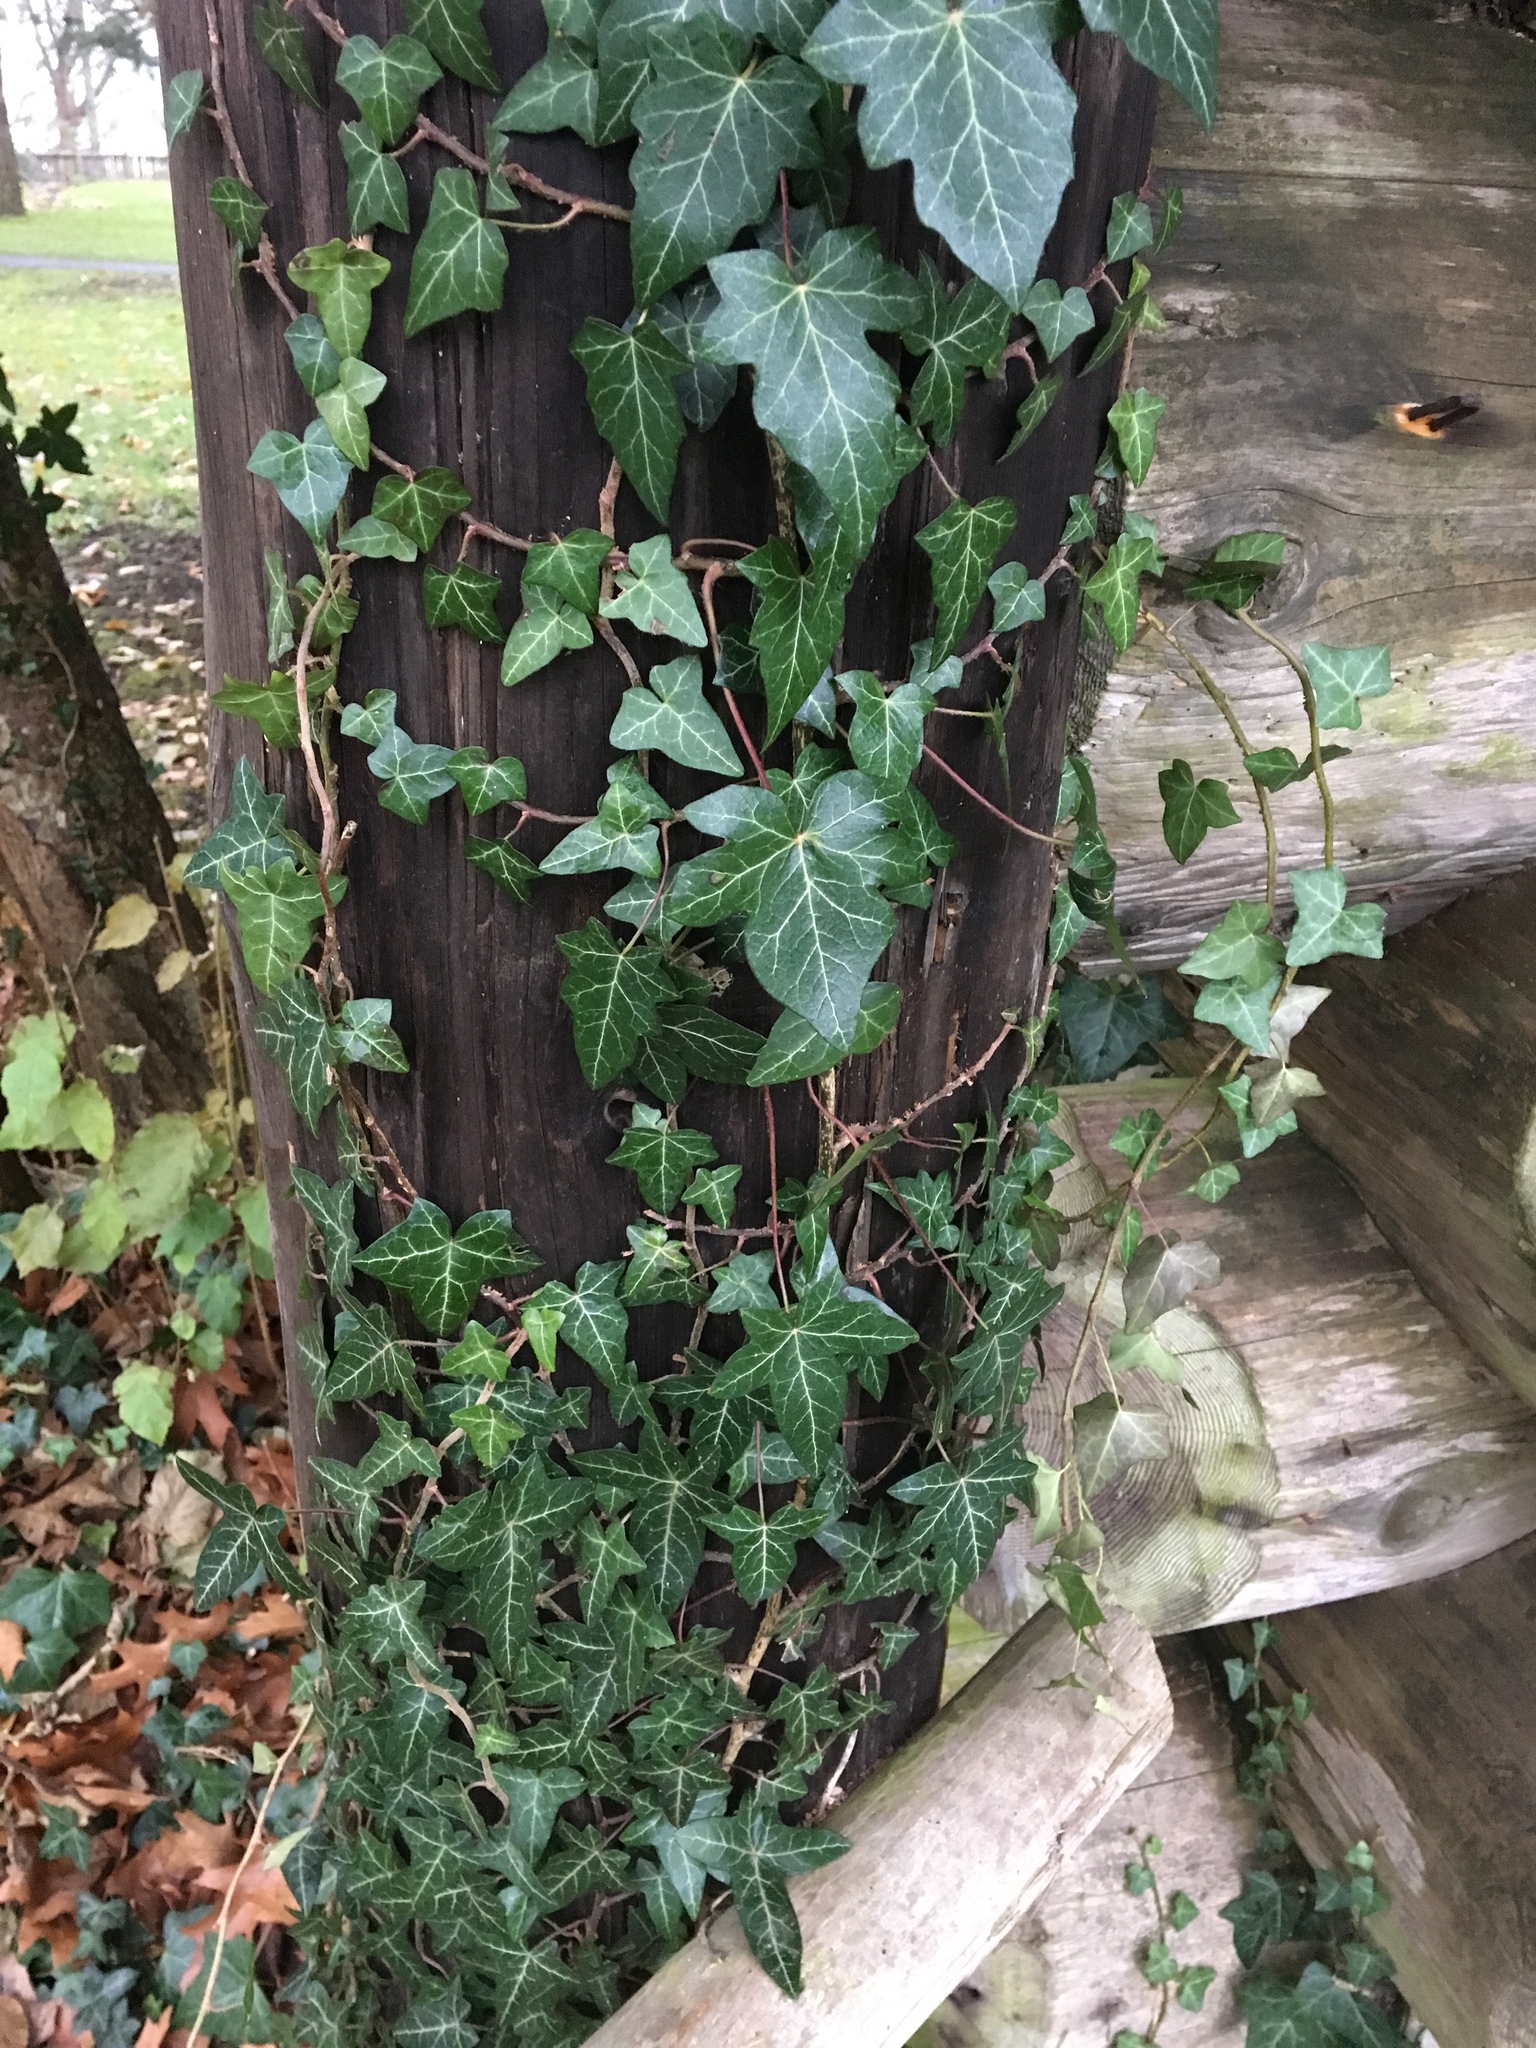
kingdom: Plantae
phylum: Tracheophyta
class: Magnoliopsida
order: Apiales
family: Araliaceae
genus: Hedera
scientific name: Hedera helix
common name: Ivy
